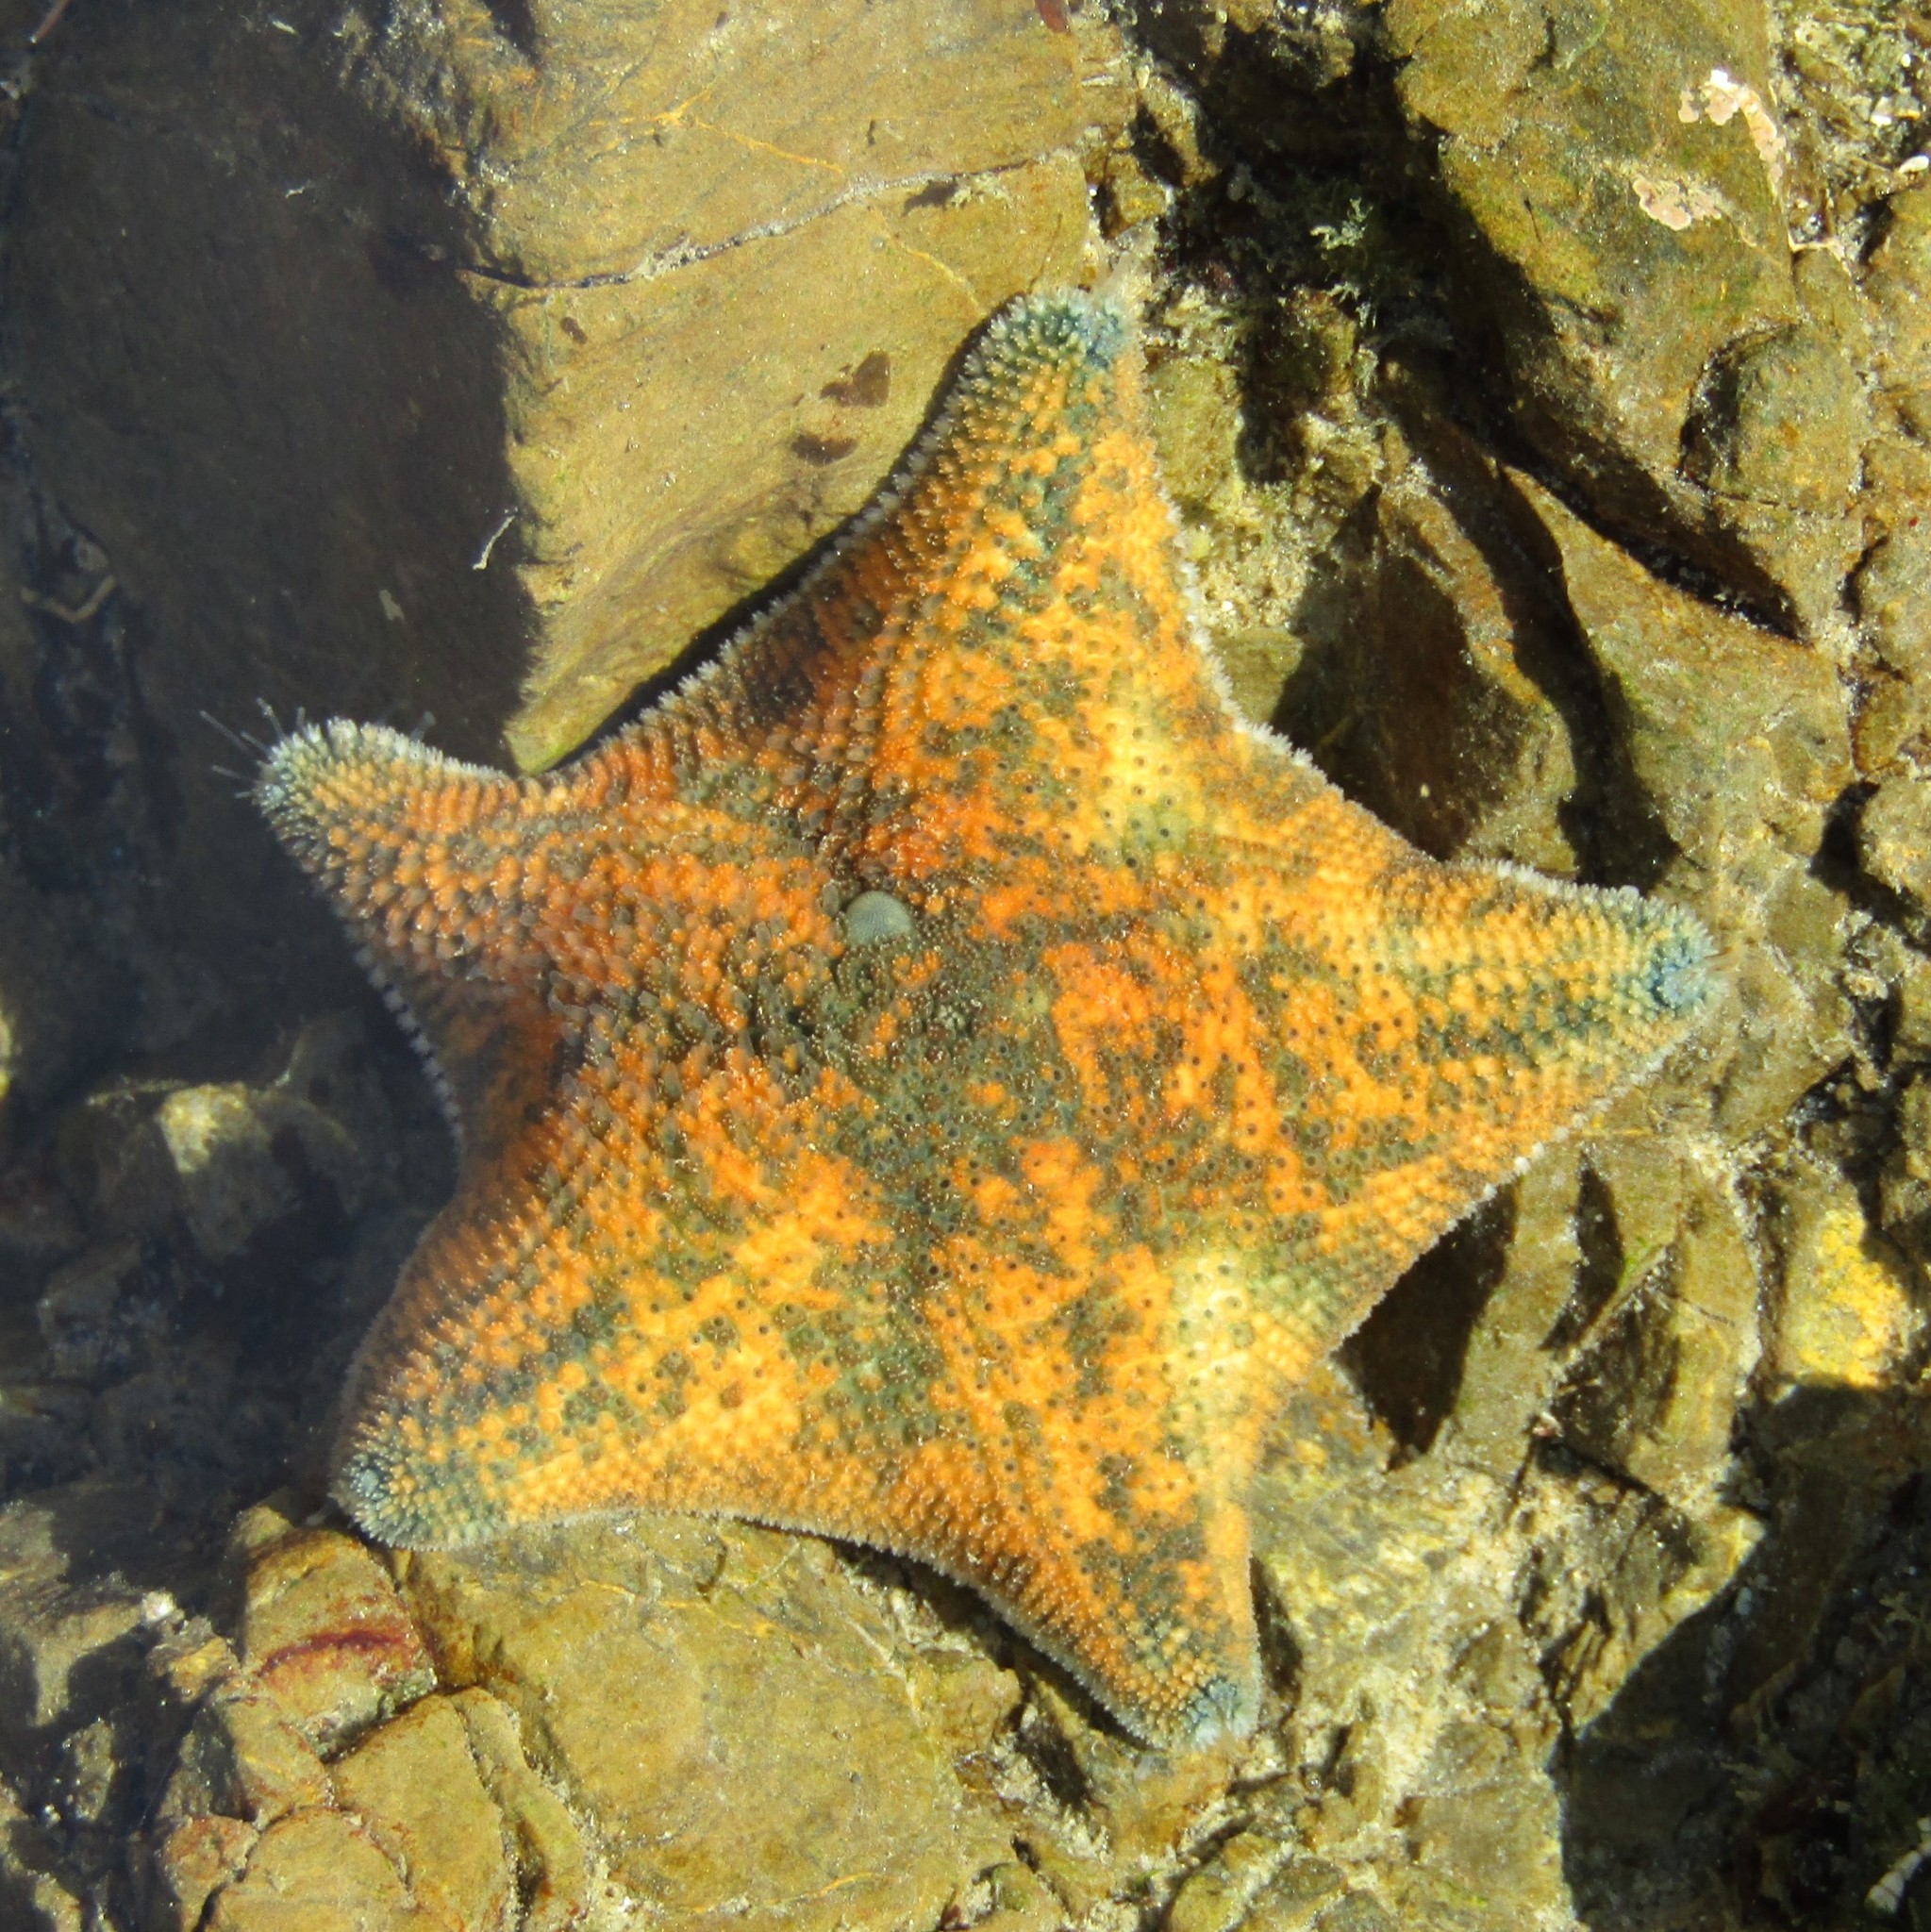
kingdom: Animalia
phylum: Echinodermata
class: Asteroidea
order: Valvatida
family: Asterinidae
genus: Patiriella
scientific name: Patiriella regularis
